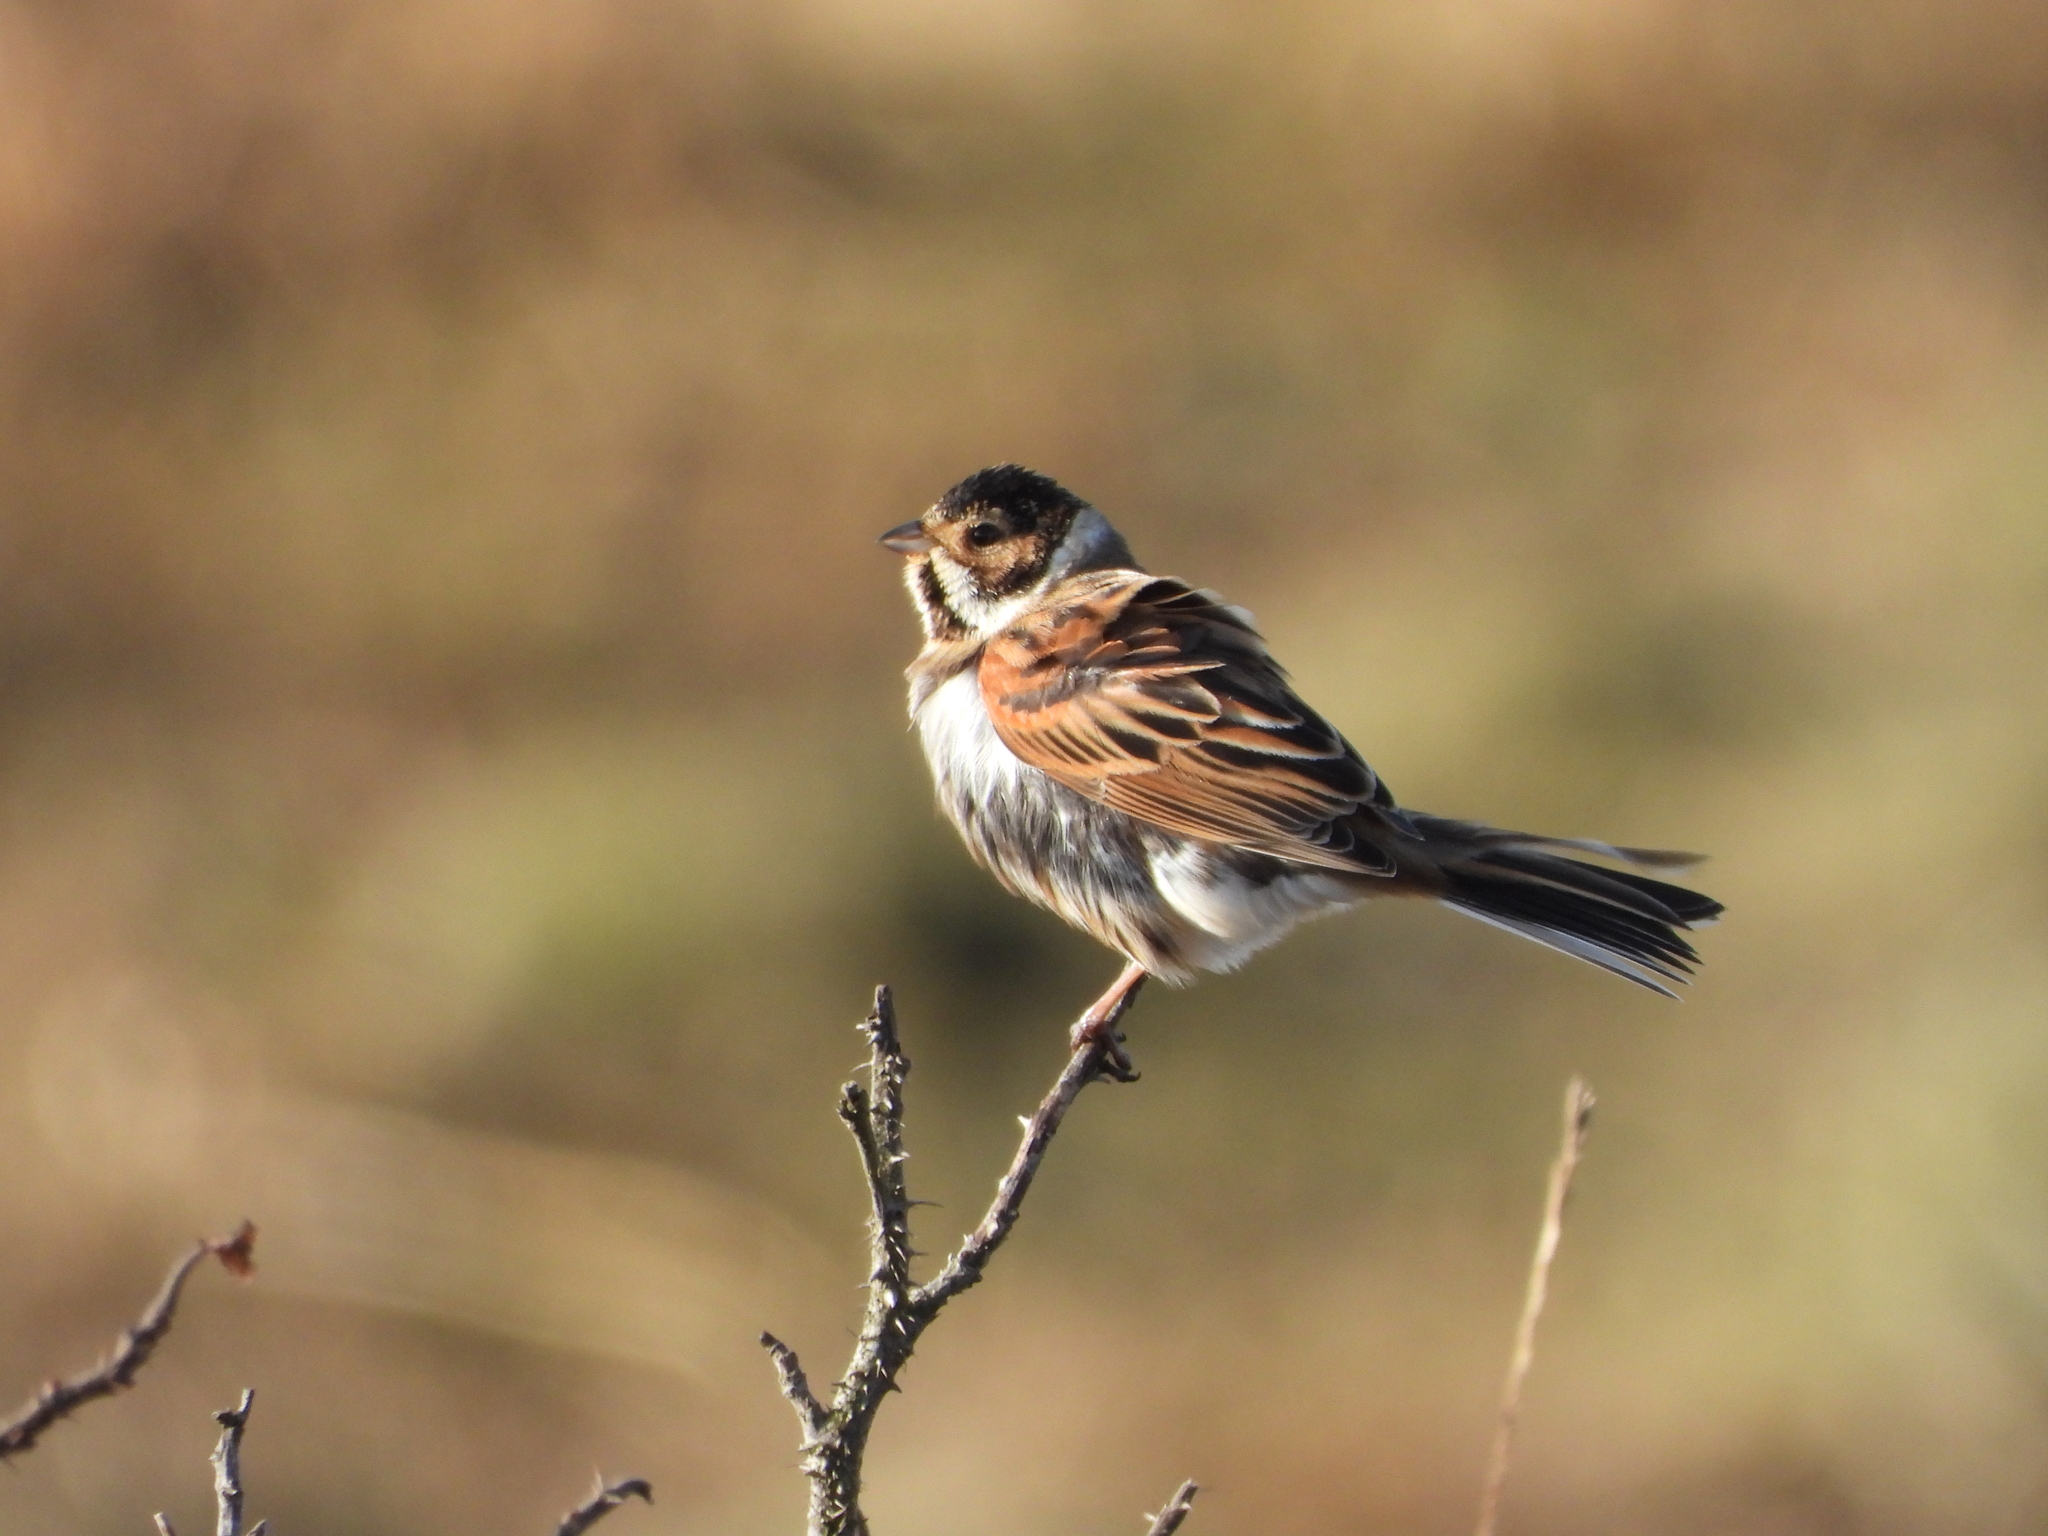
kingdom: Animalia
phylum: Chordata
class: Aves
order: Passeriformes
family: Emberizidae
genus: Emberiza
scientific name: Emberiza schoeniclus
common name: Reed bunting
